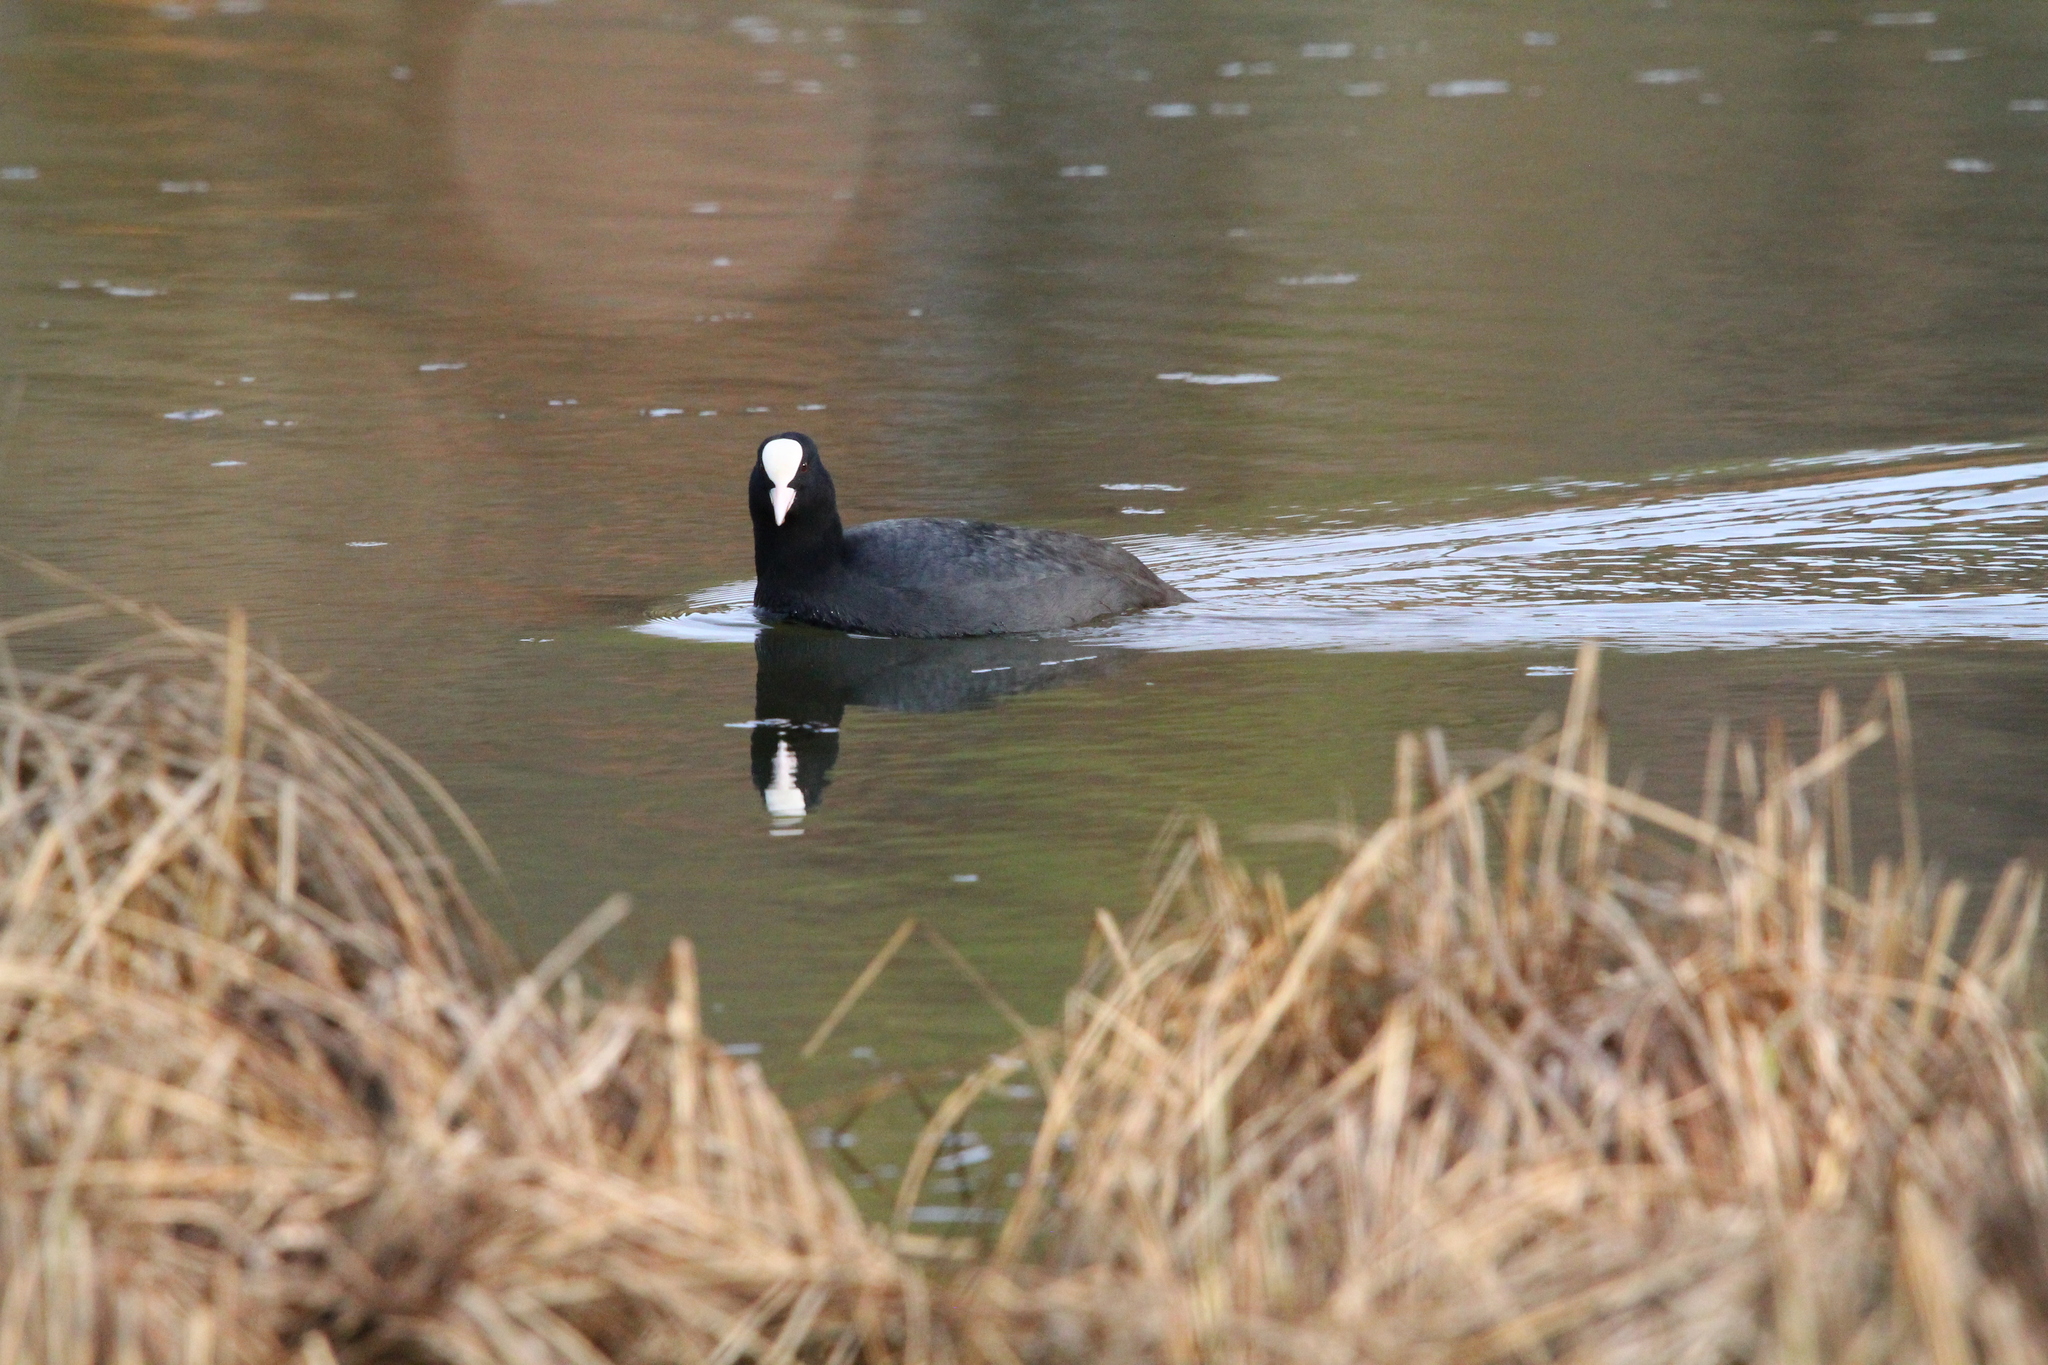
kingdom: Animalia
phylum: Chordata
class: Aves
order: Gruiformes
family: Rallidae
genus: Fulica
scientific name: Fulica atra
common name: Eurasian coot
